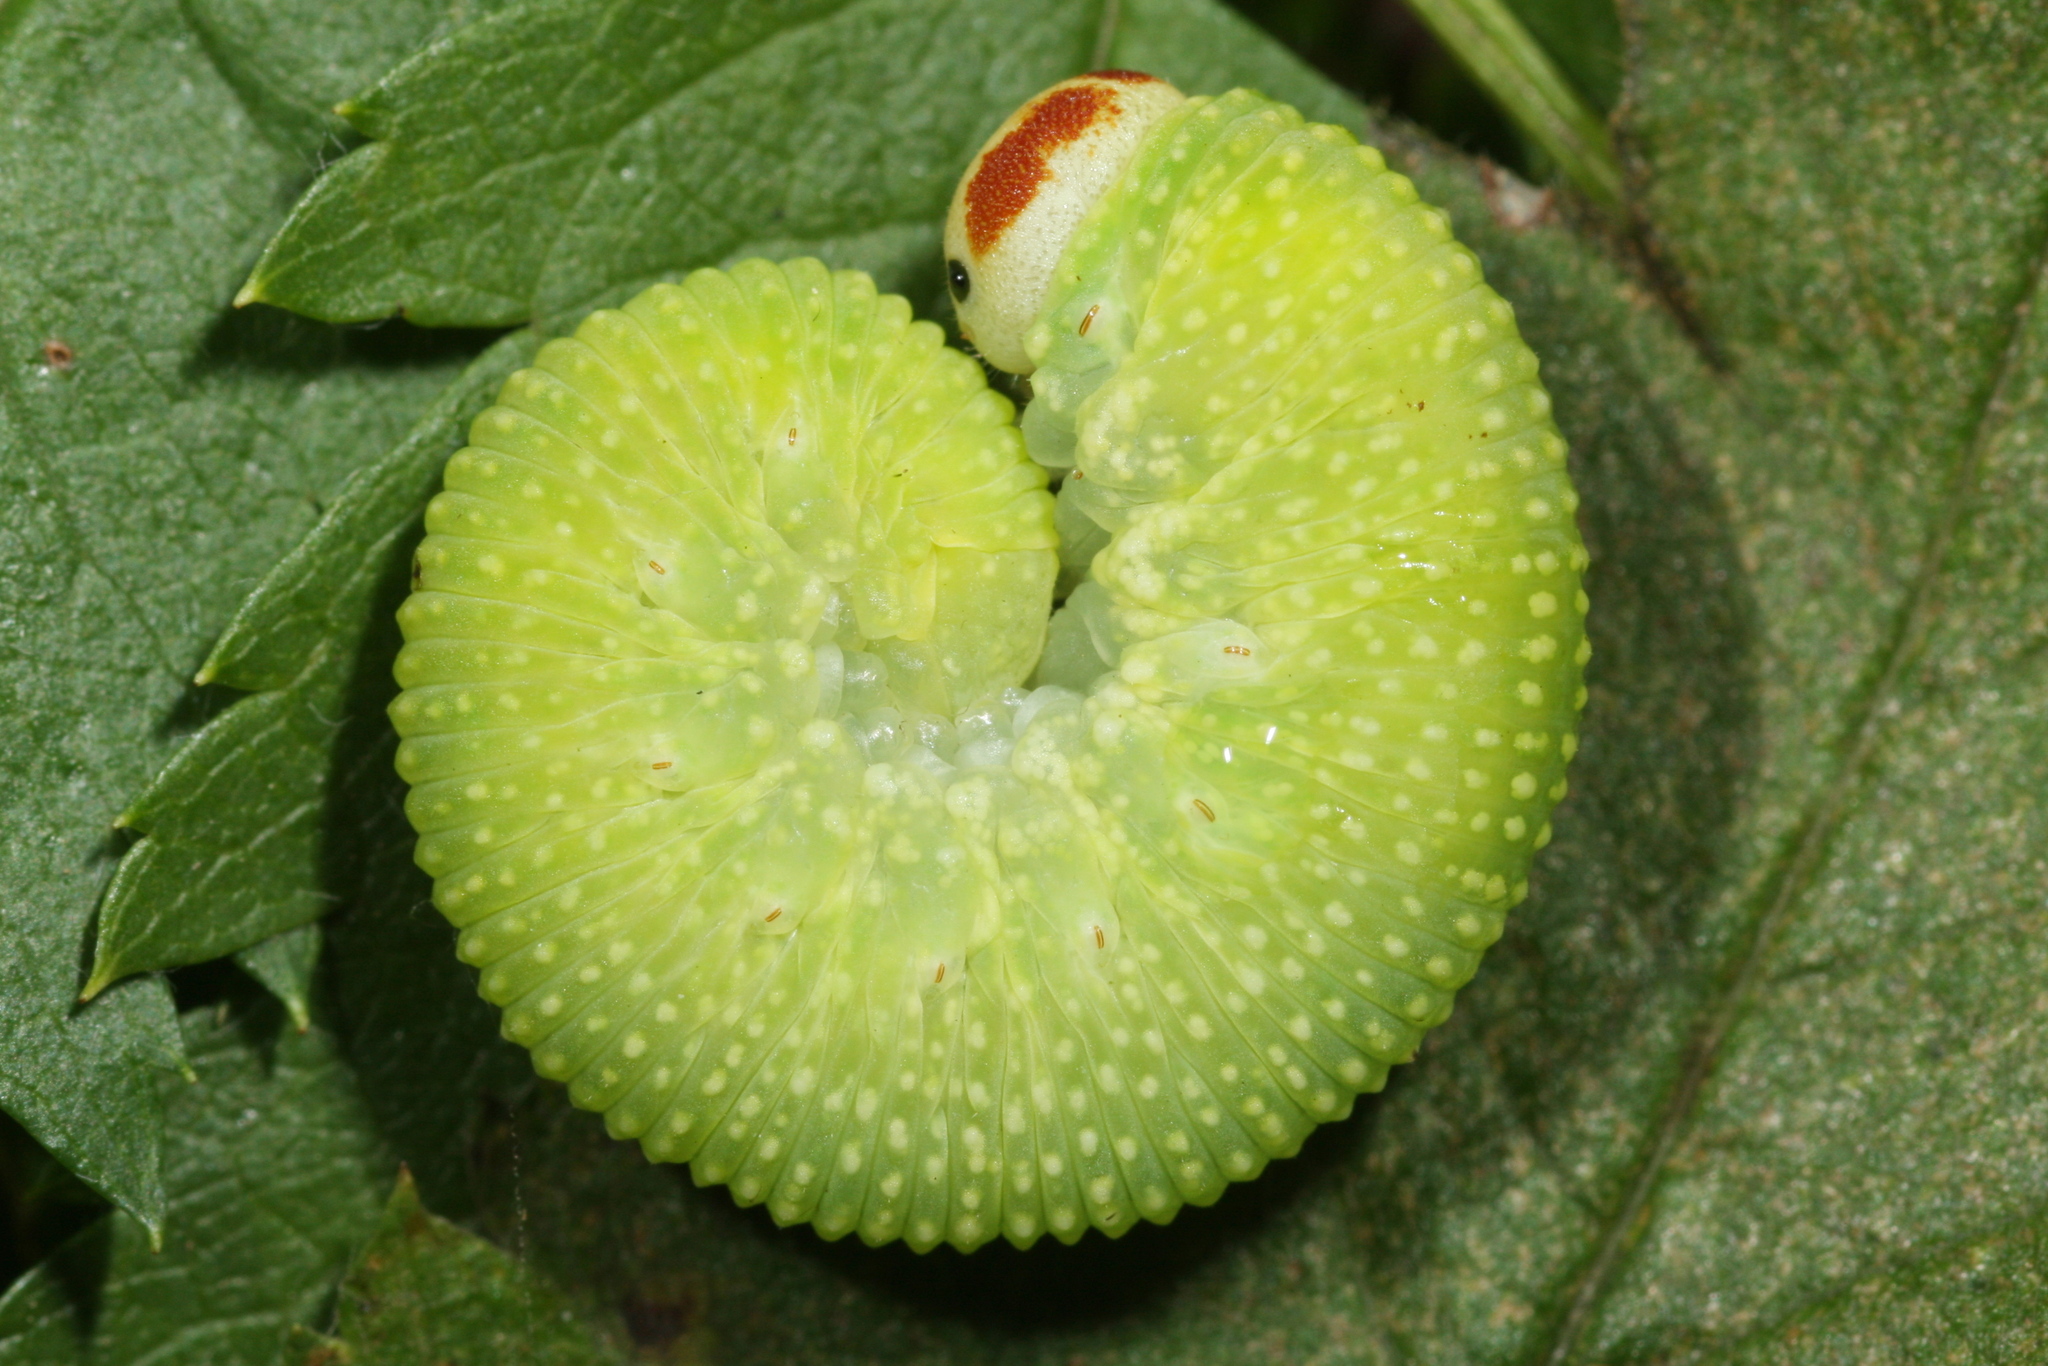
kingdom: Animalia
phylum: Arthropoda
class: Insecta
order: Hymenoptera
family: Cimbicidae
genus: Trichiosoma
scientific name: Trichiosoma sorbi
